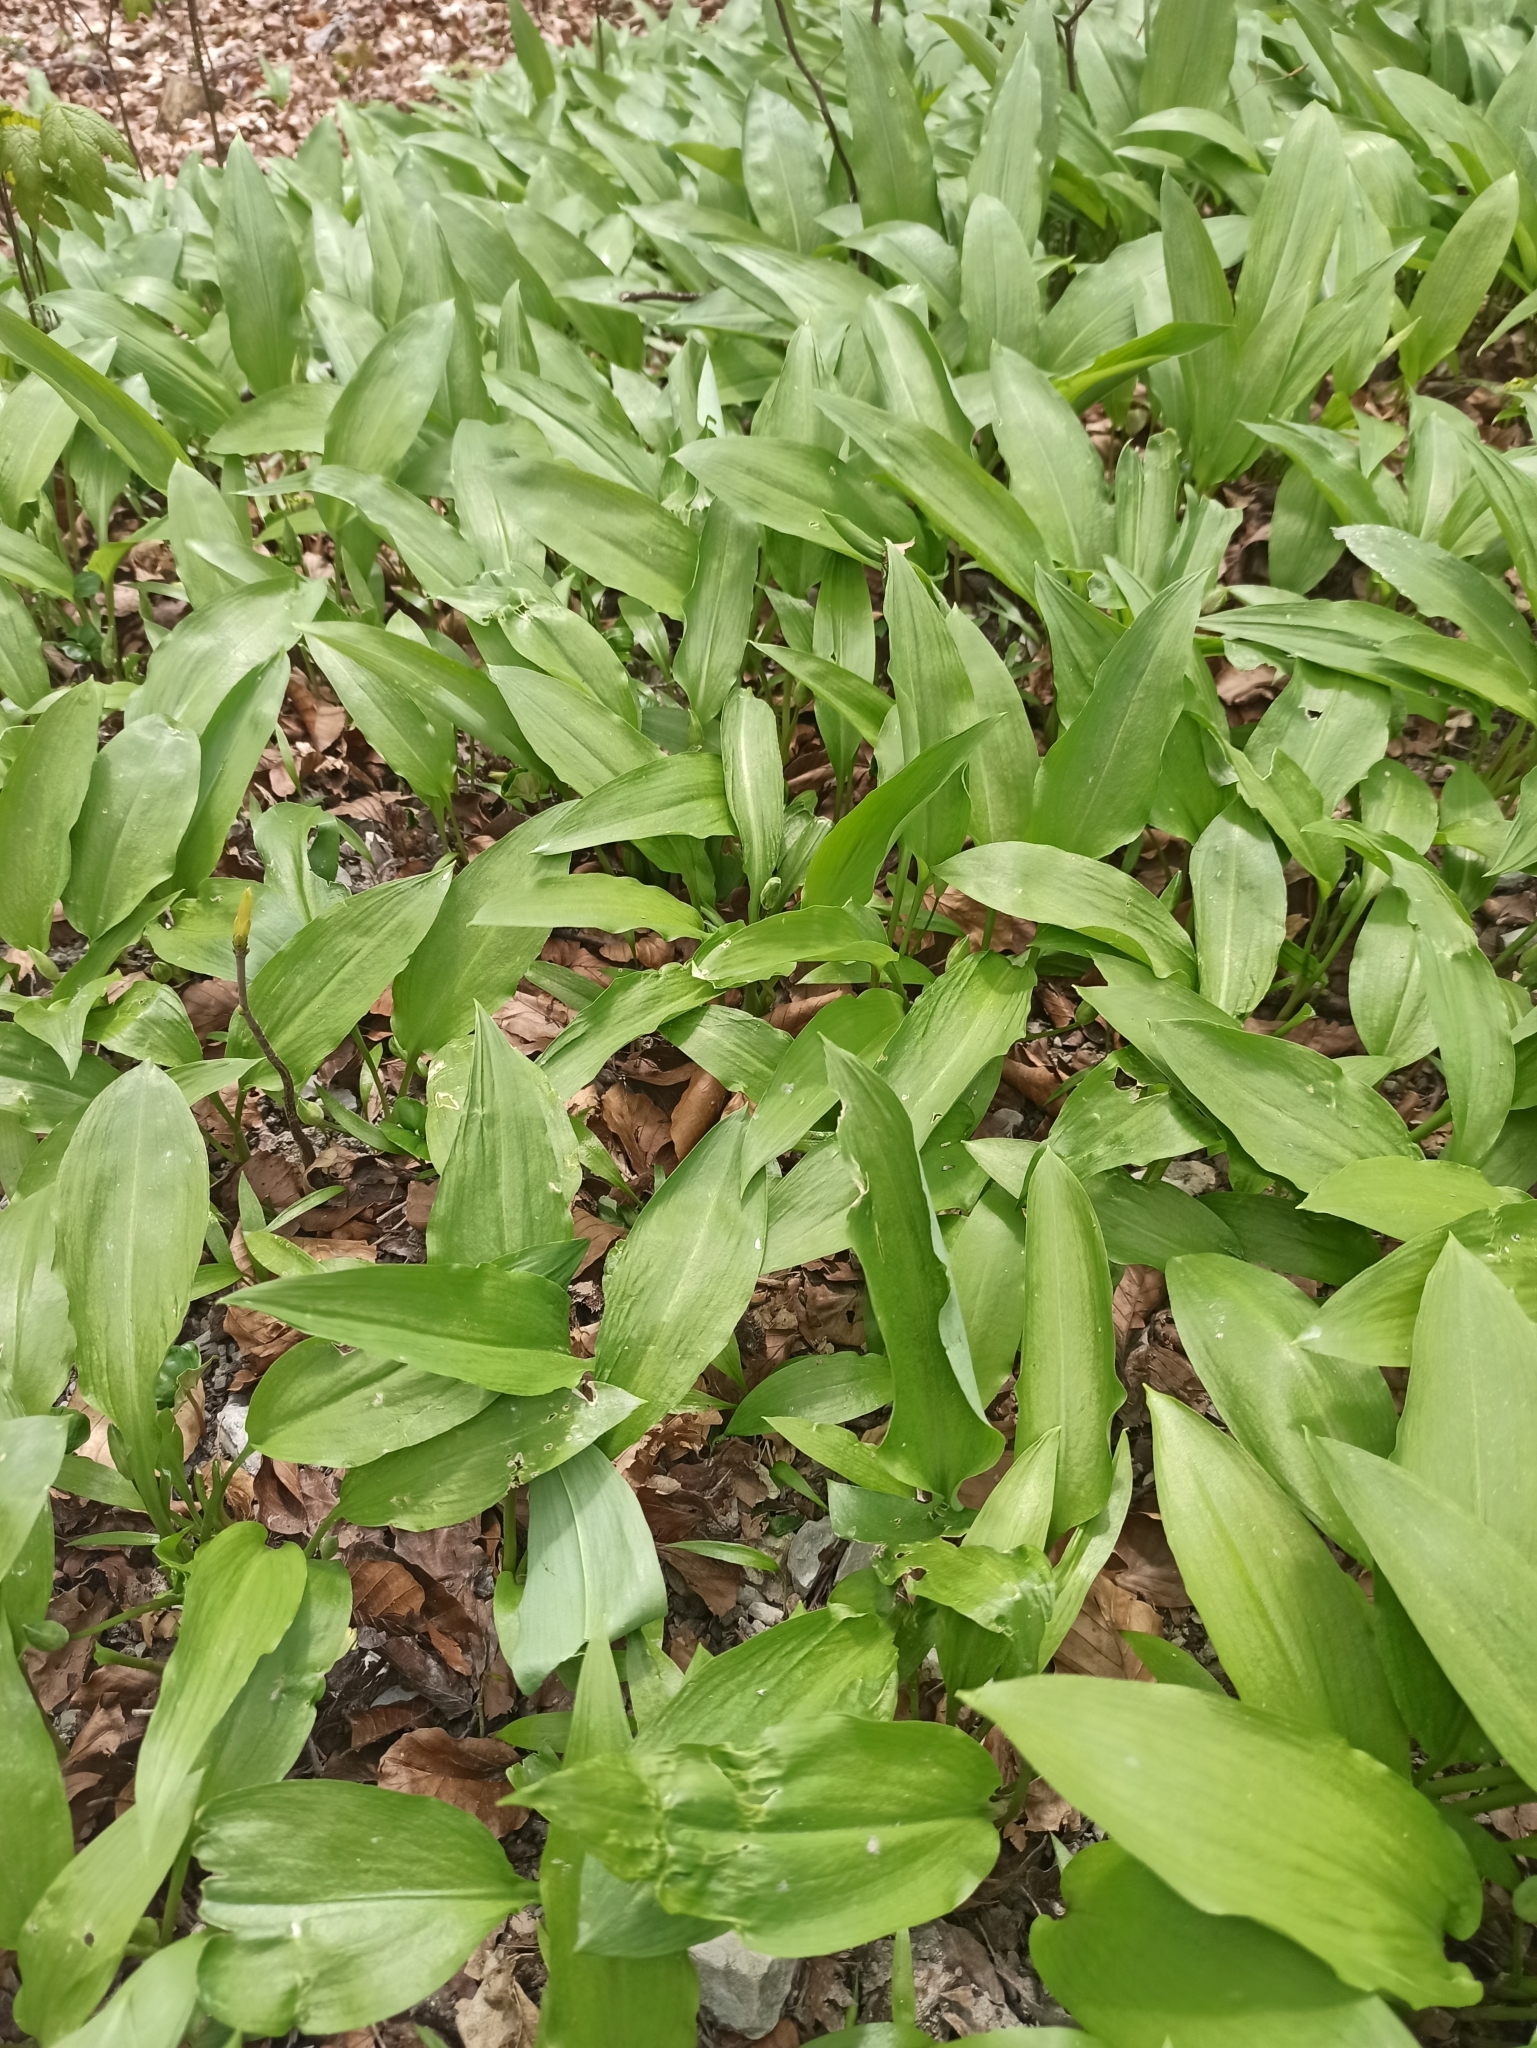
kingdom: Plantae
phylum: Tracheophyta
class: Liliopsida
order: Asparagales
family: Amaryllidaceae
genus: Allium
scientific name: Allium ursinum
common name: Ramsons
